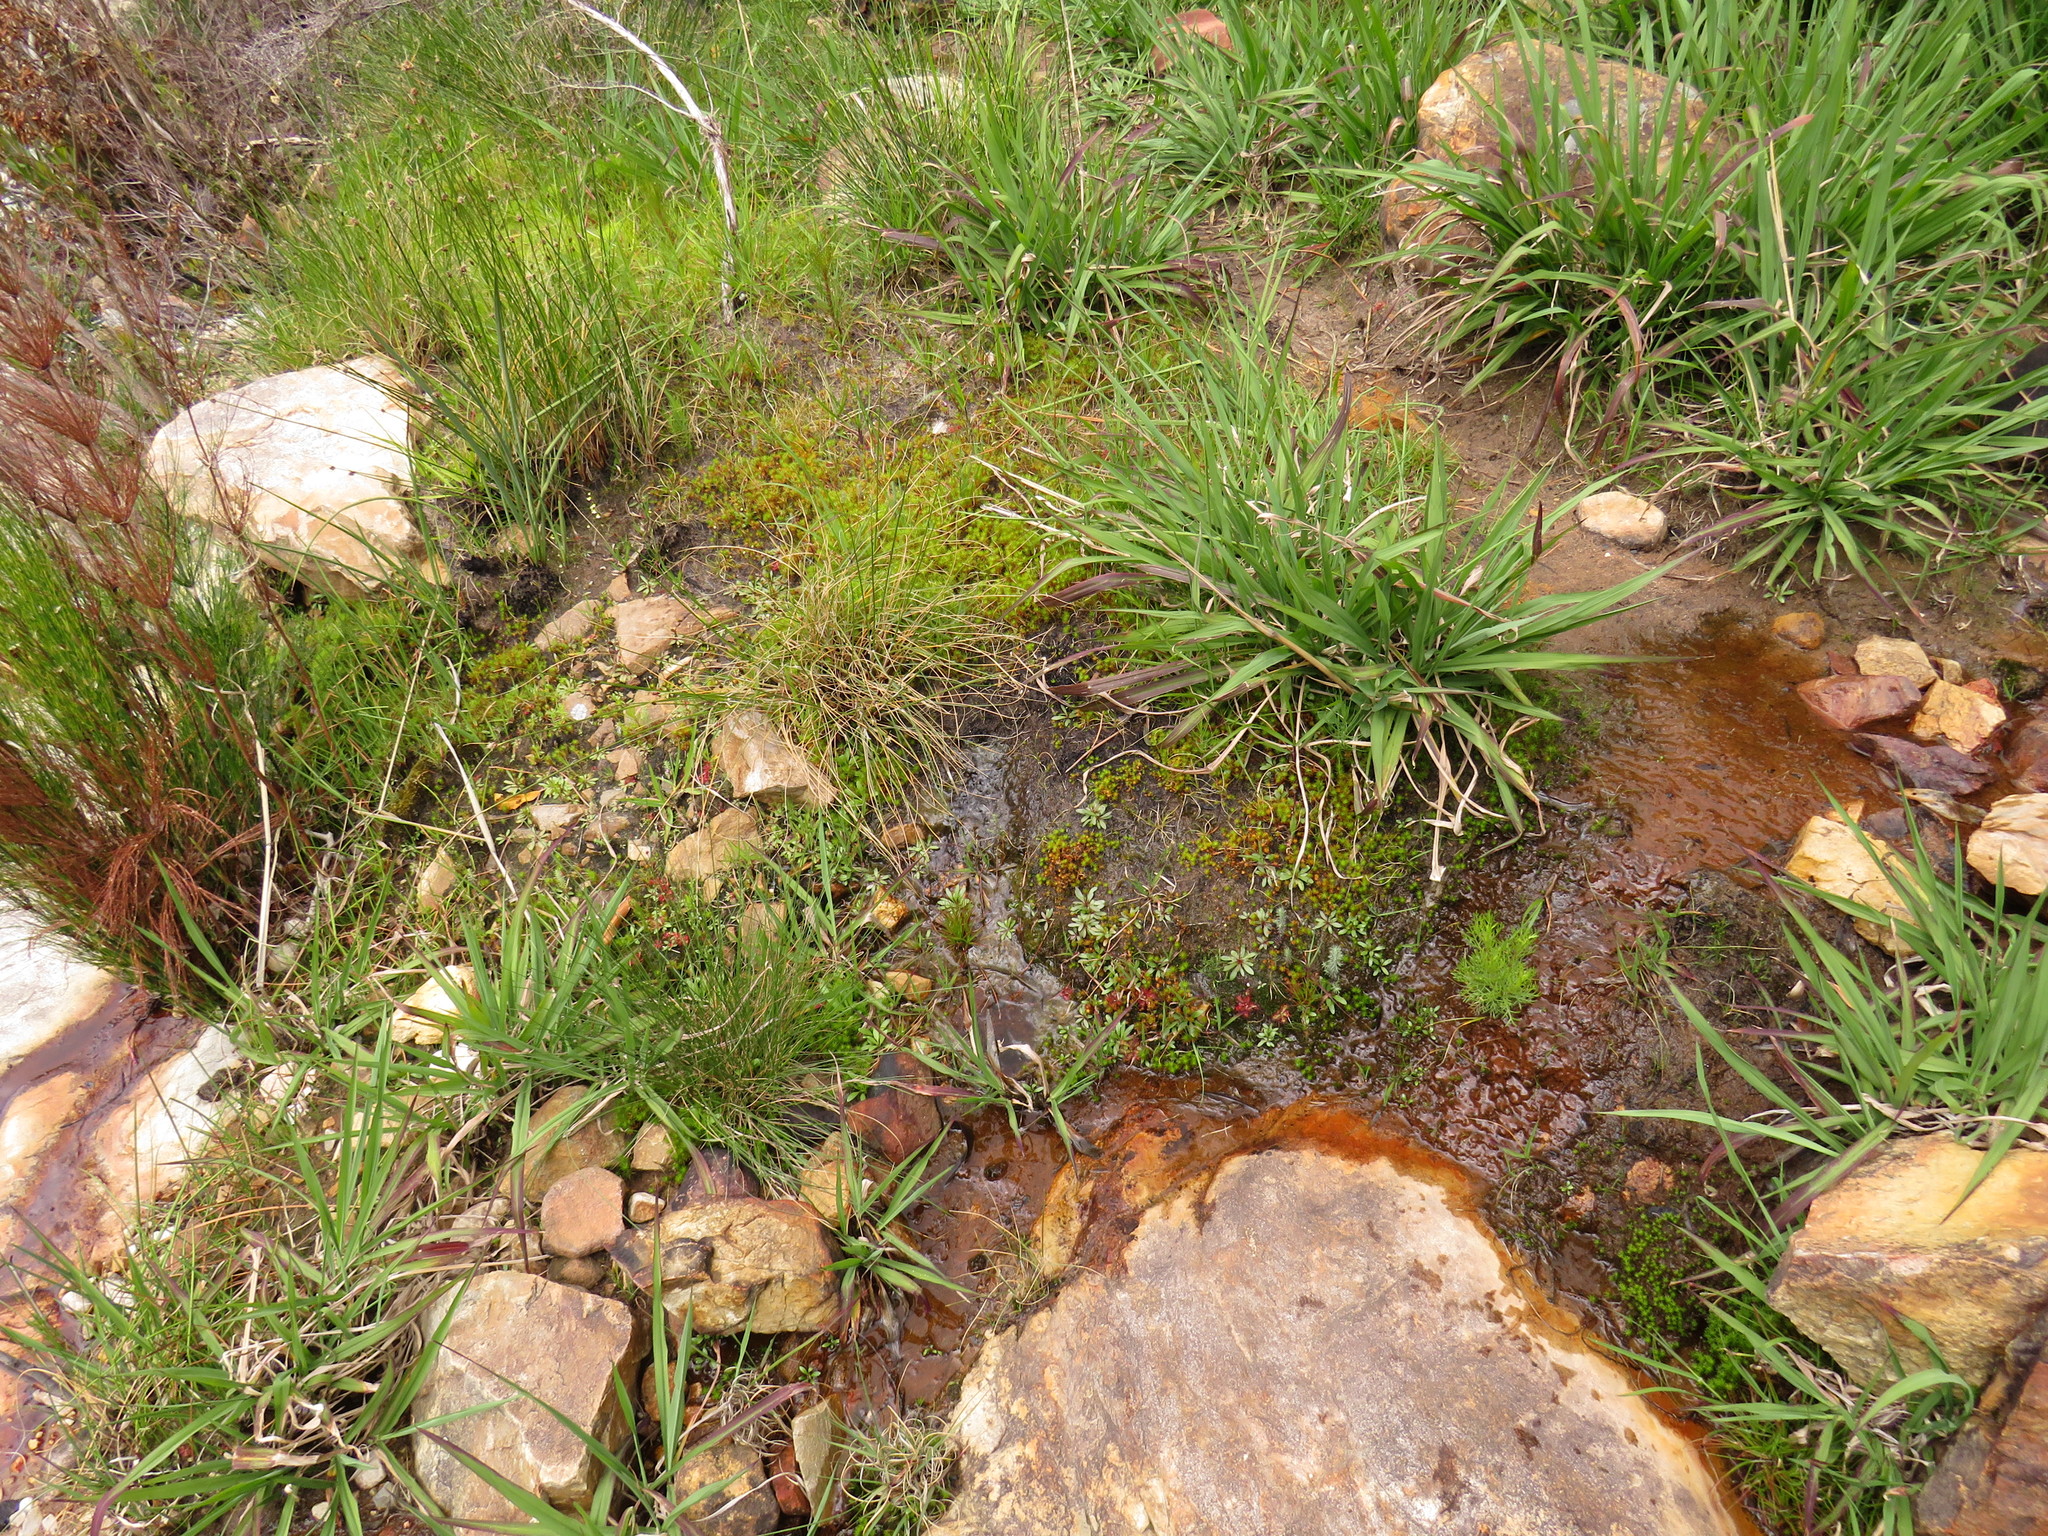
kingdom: Plantae
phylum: Tracheophyta
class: Magnoliopsida
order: Lamiales
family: Lentibulariaceae
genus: Utricularia
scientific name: Utricularia bisquamata
